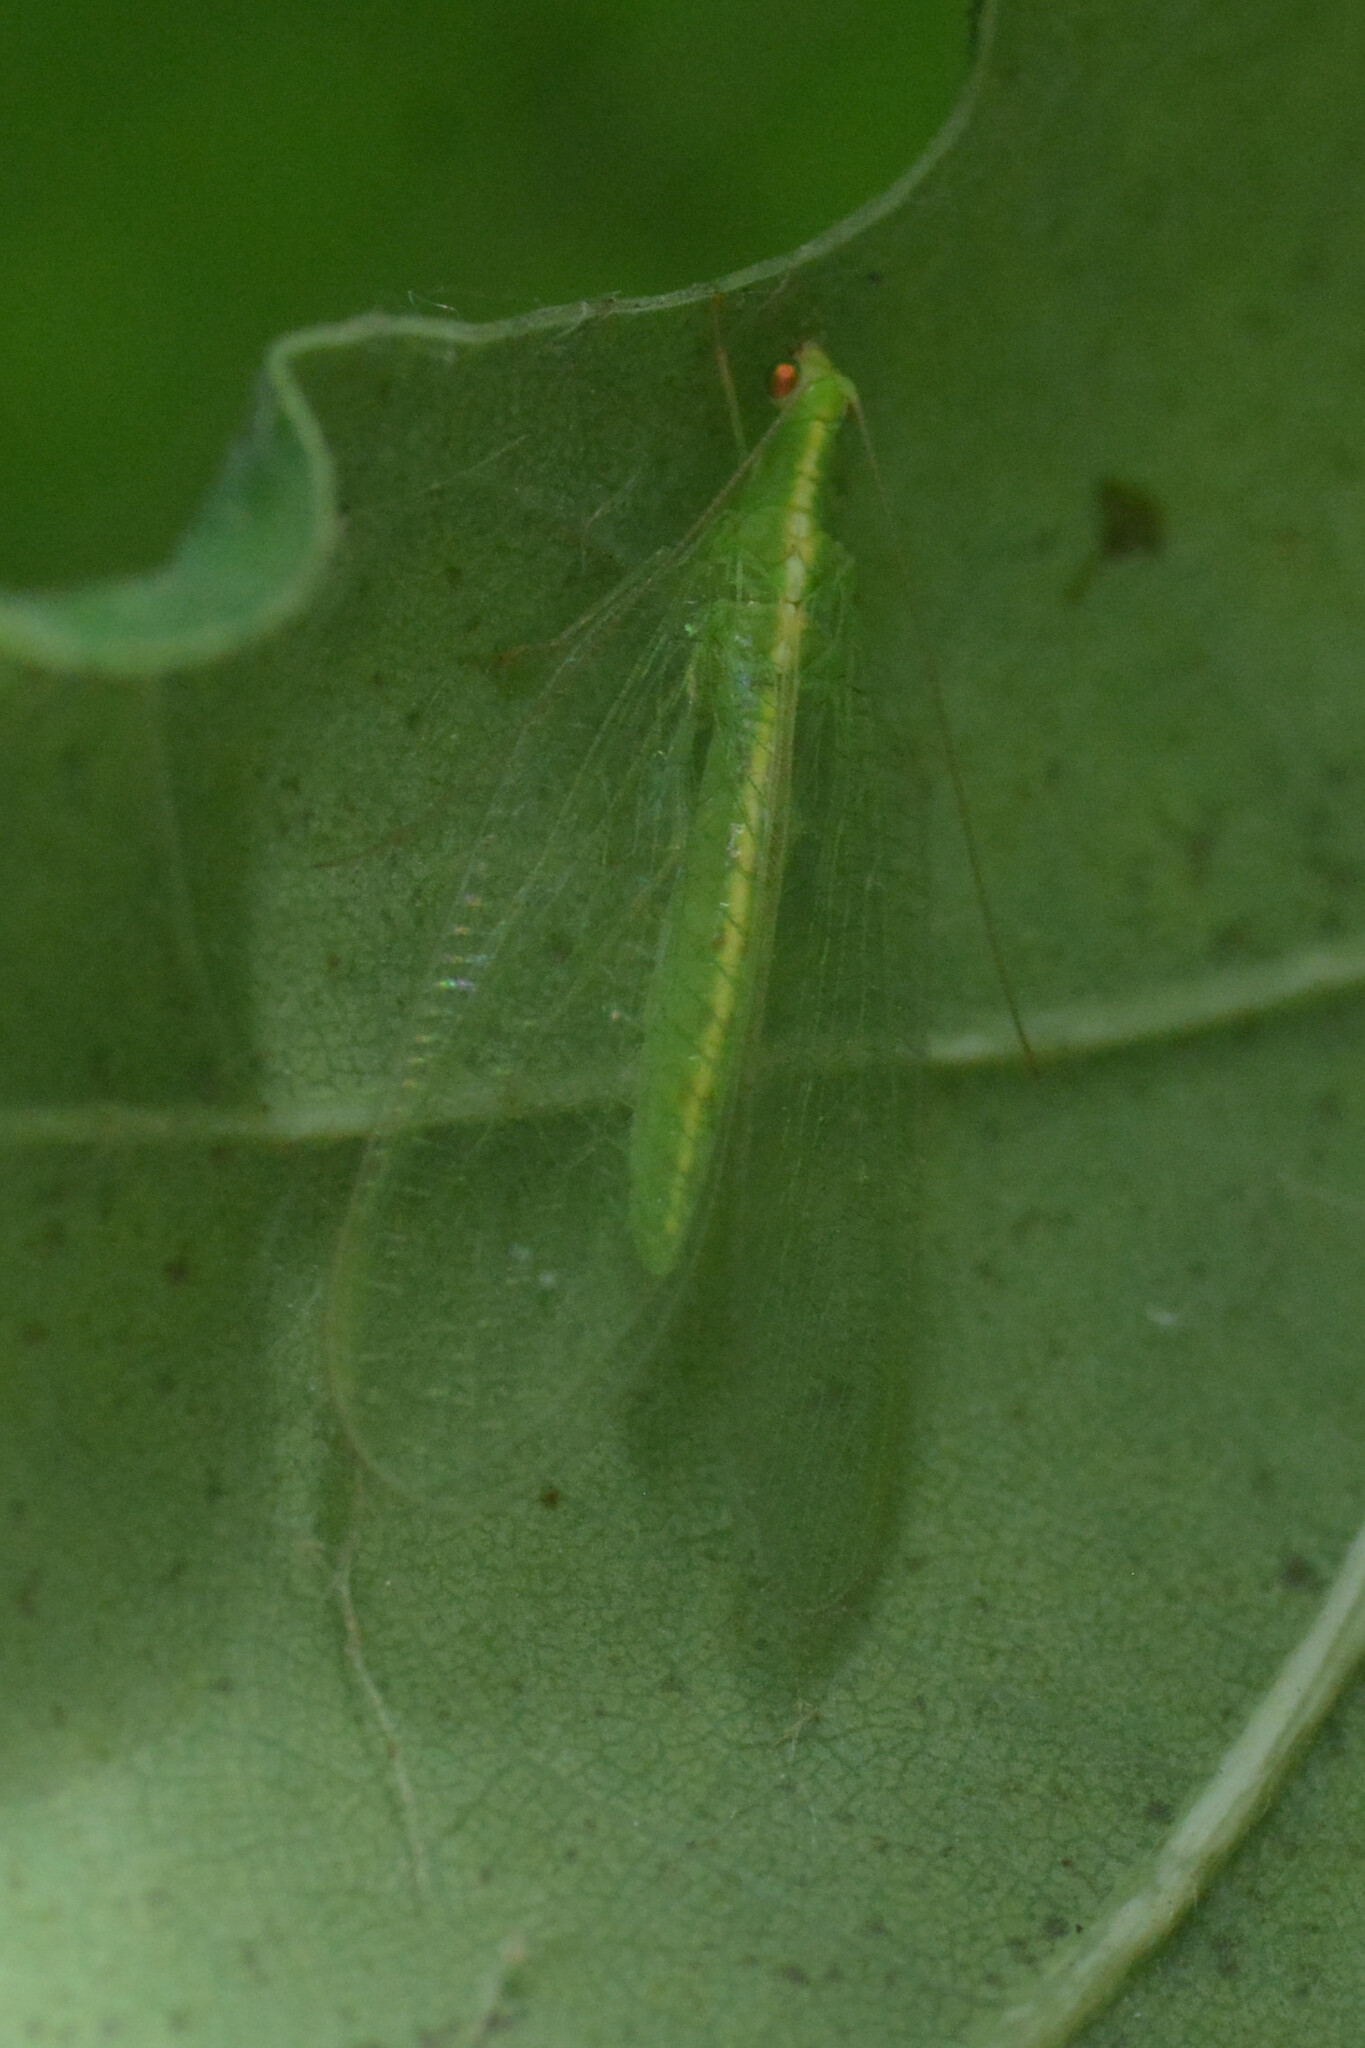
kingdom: Animalia
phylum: Arthropoda
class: Insecta
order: Neuroptera
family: Chrysopidae
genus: Chrysoperla
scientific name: Chrysoperla
